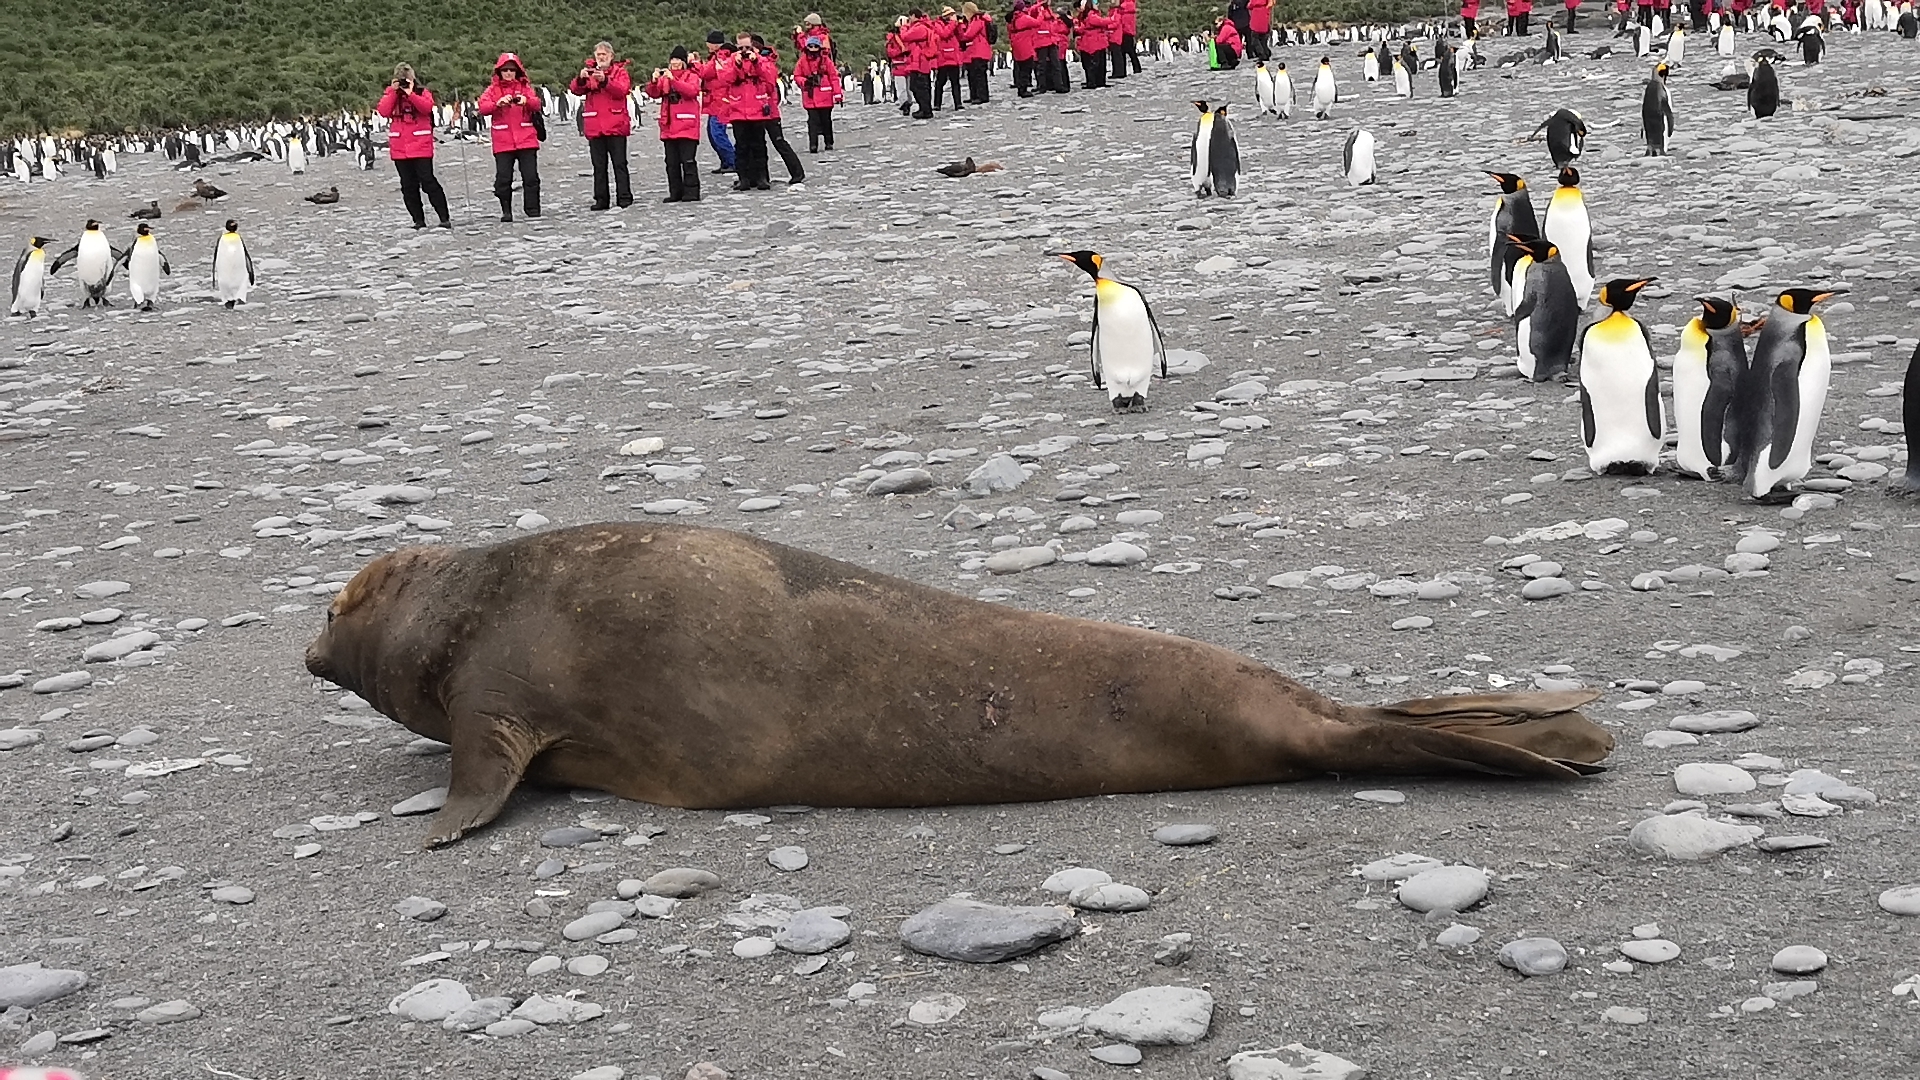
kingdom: Animalia
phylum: Chordata
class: Mammalia
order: Carnivora
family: Phocidae
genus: Mirounga
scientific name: Mirounga leonina
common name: Southern elephant seal
